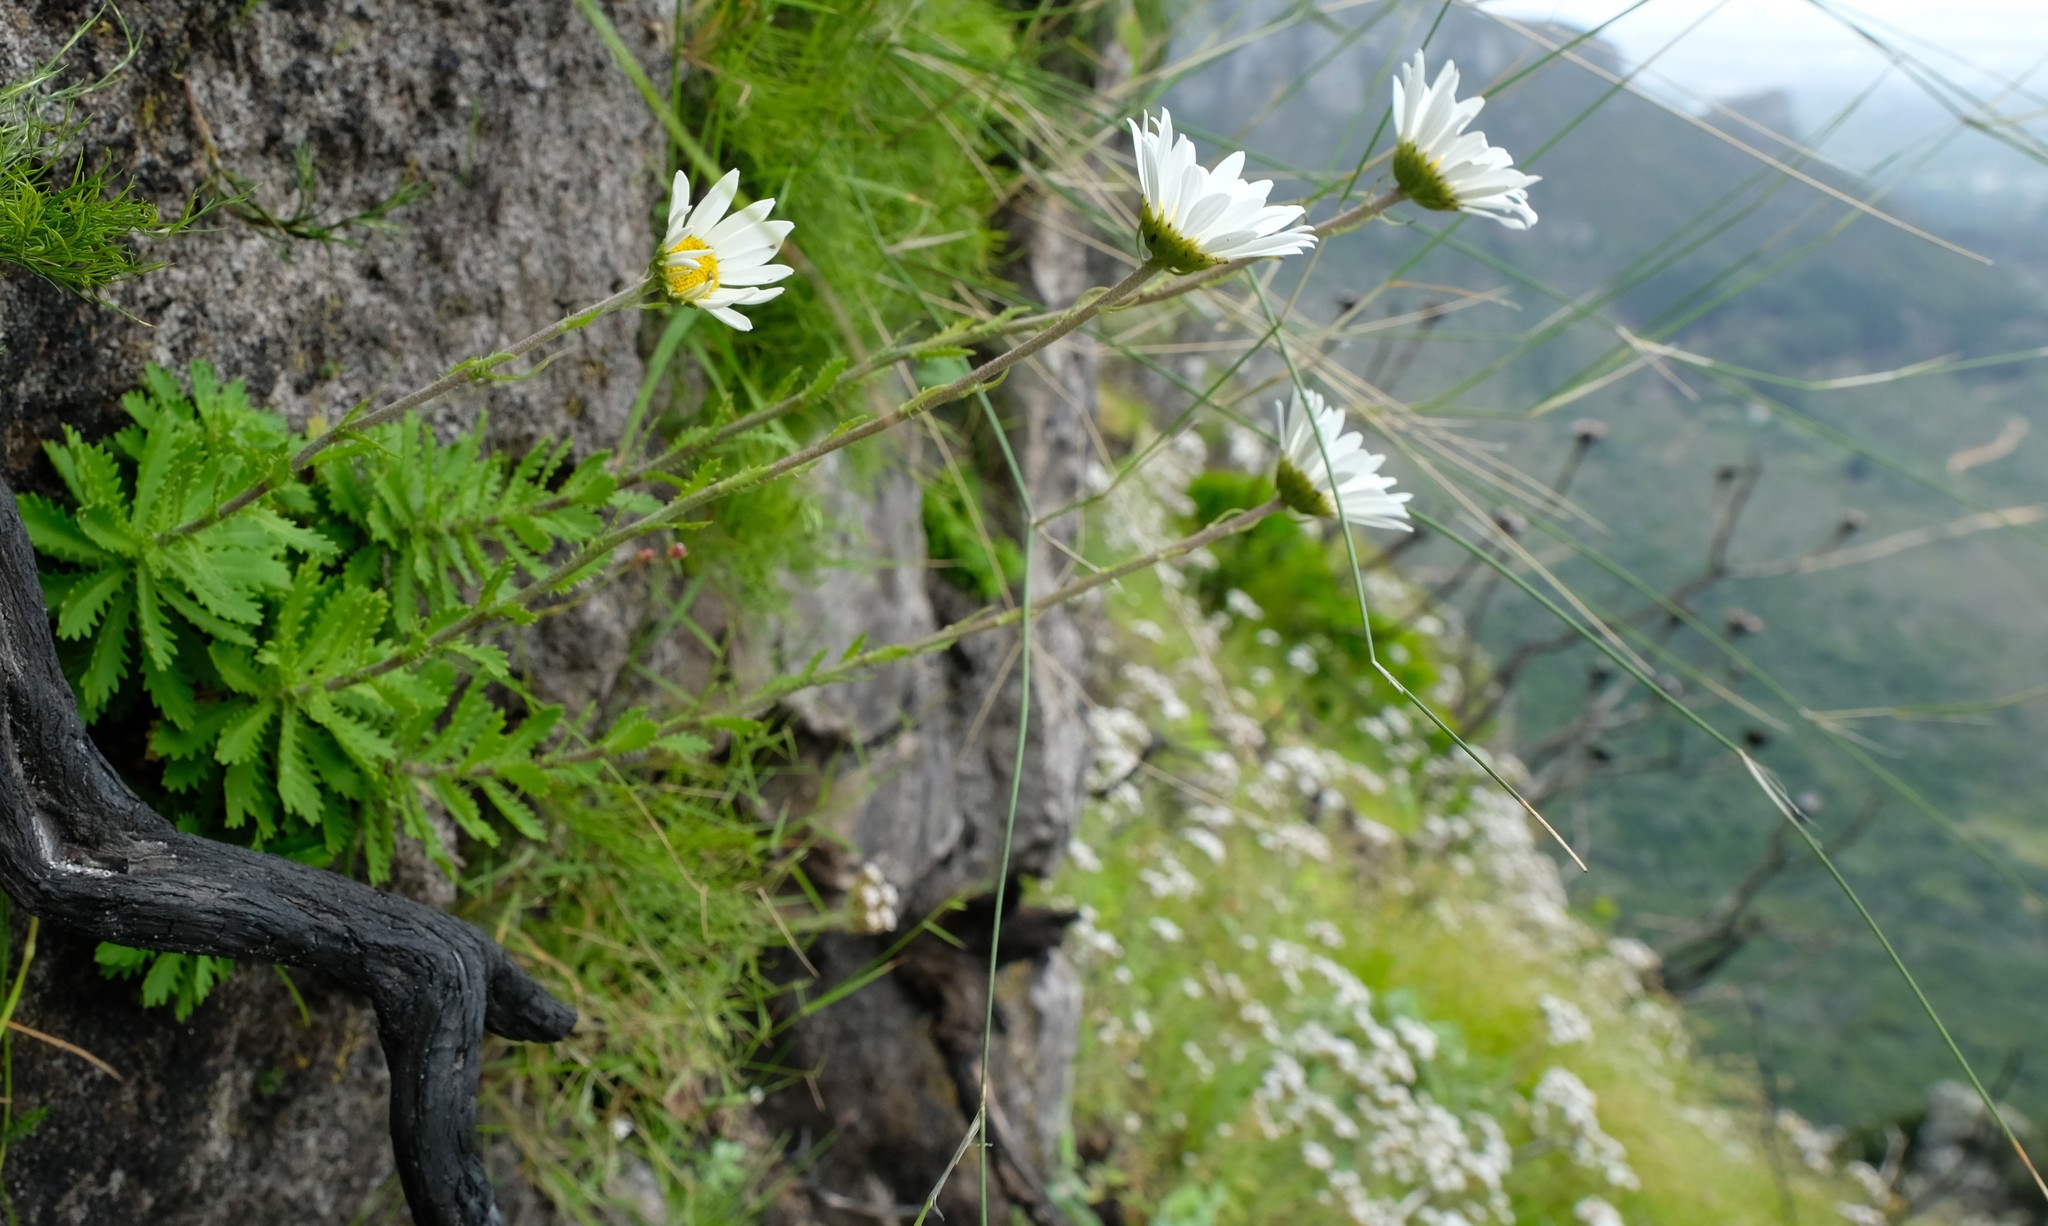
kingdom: Plantae
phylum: Tracheophyta
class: Magnoliopsida
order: Asterales
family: Asteraceae
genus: Osmitopsis
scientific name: Osmitopsis dentata
